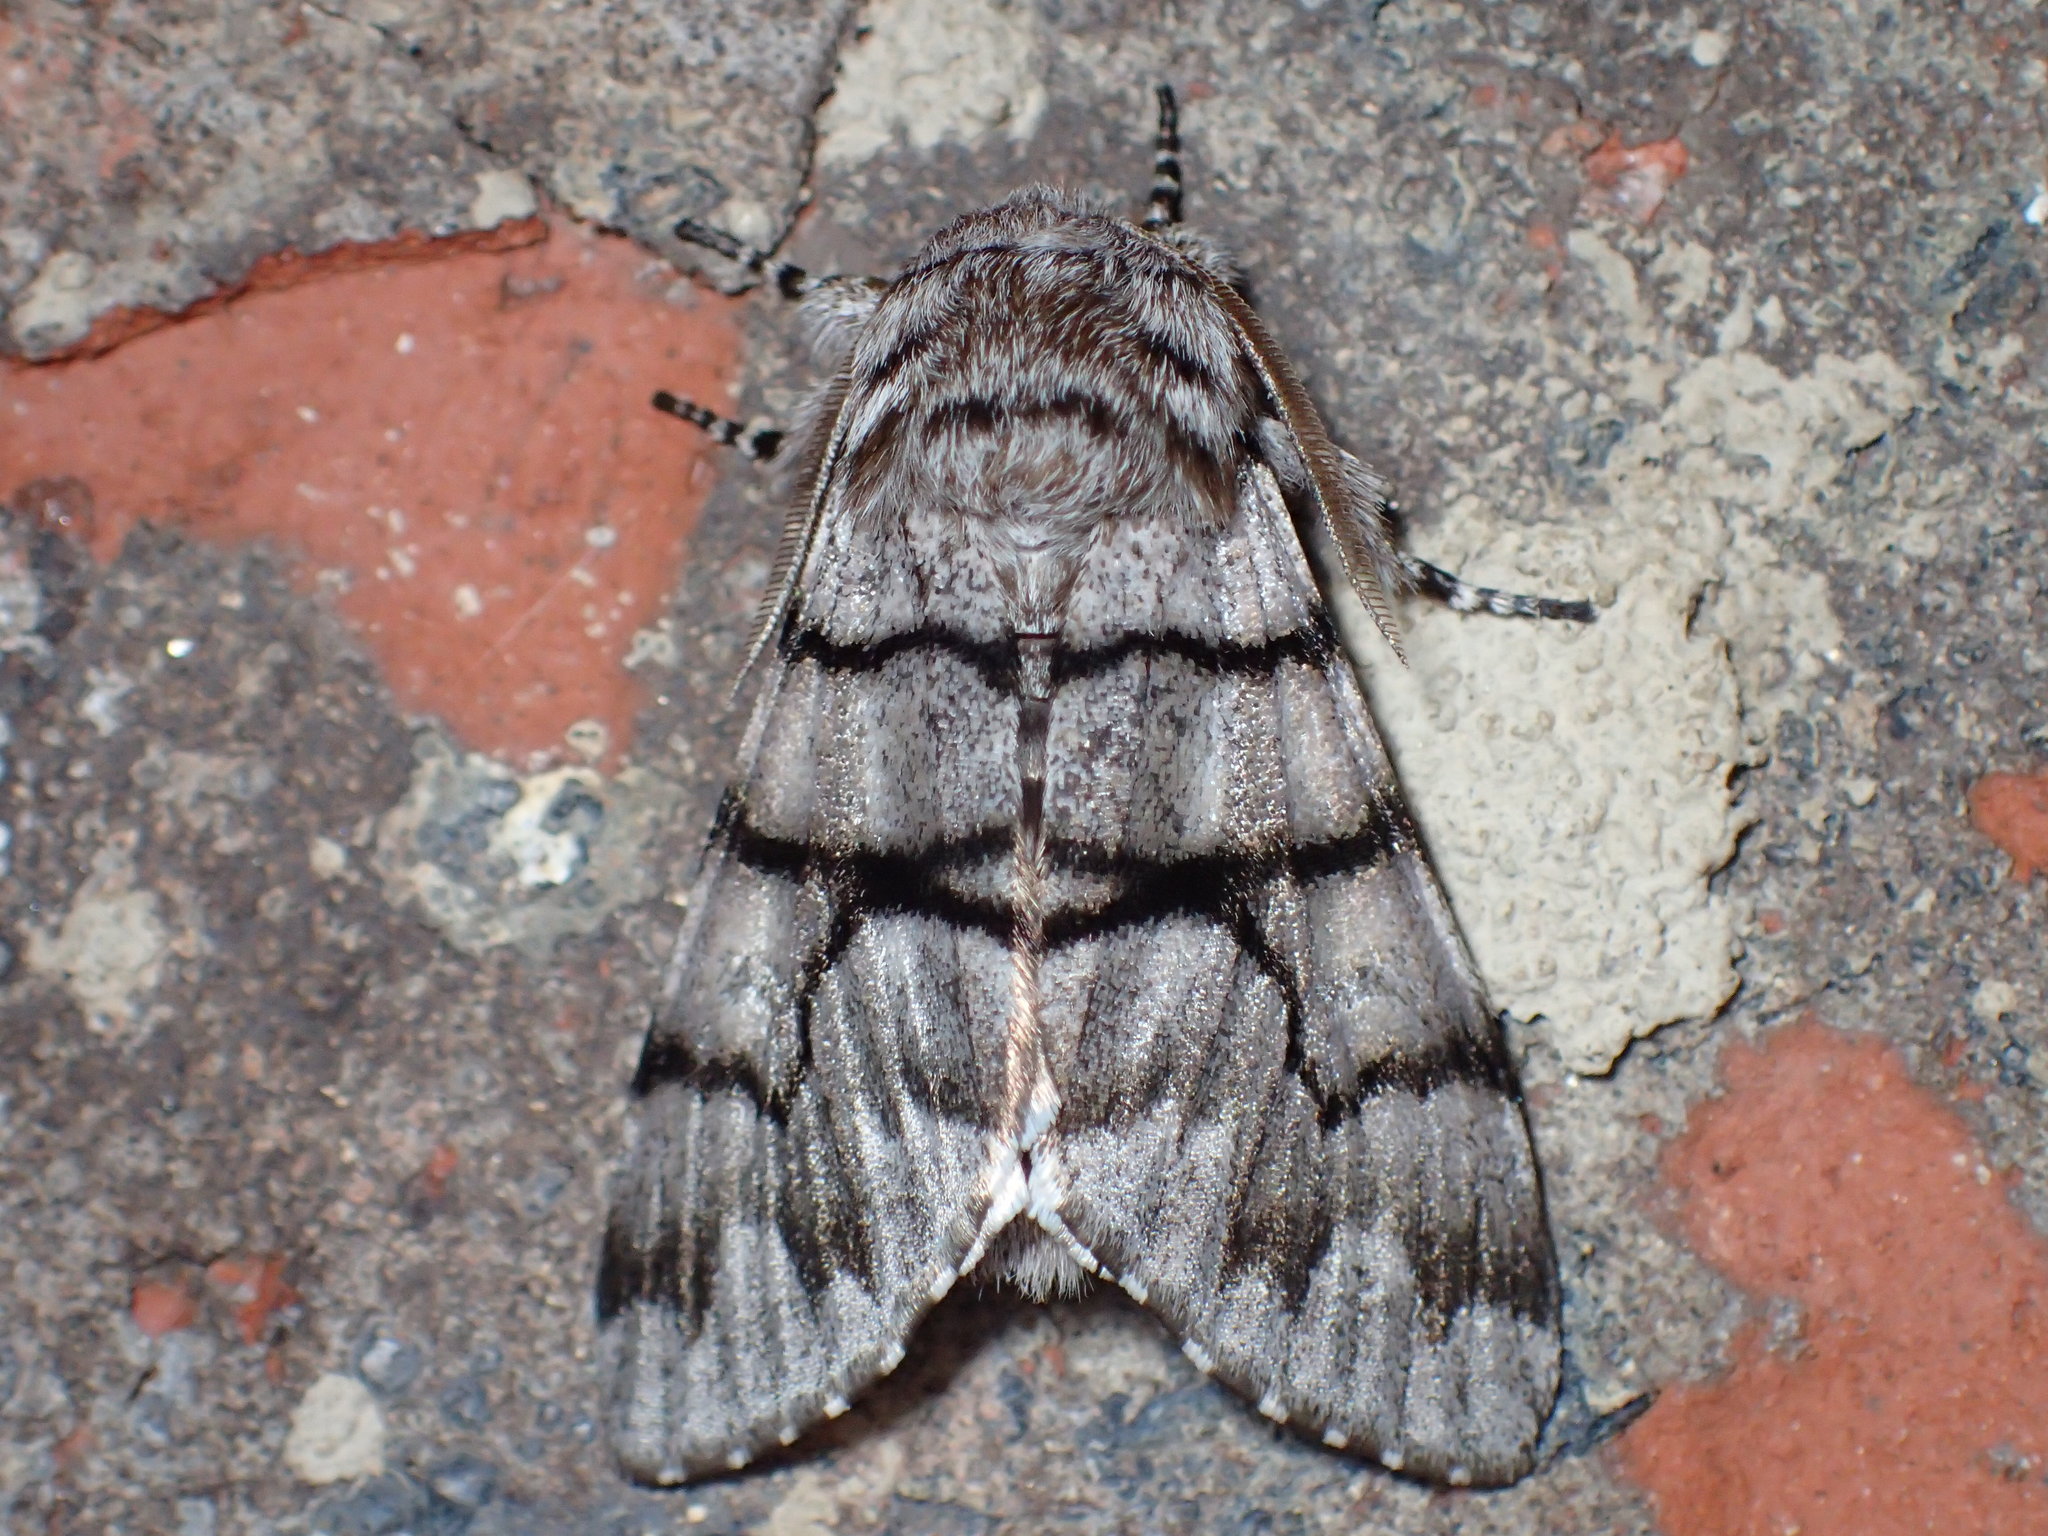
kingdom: Animalia
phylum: Arthropoda
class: Insecta
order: Lepidoptera
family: Noctuidae
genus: Panthea
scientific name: Panthea furcilla
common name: Eastern panthea moth
